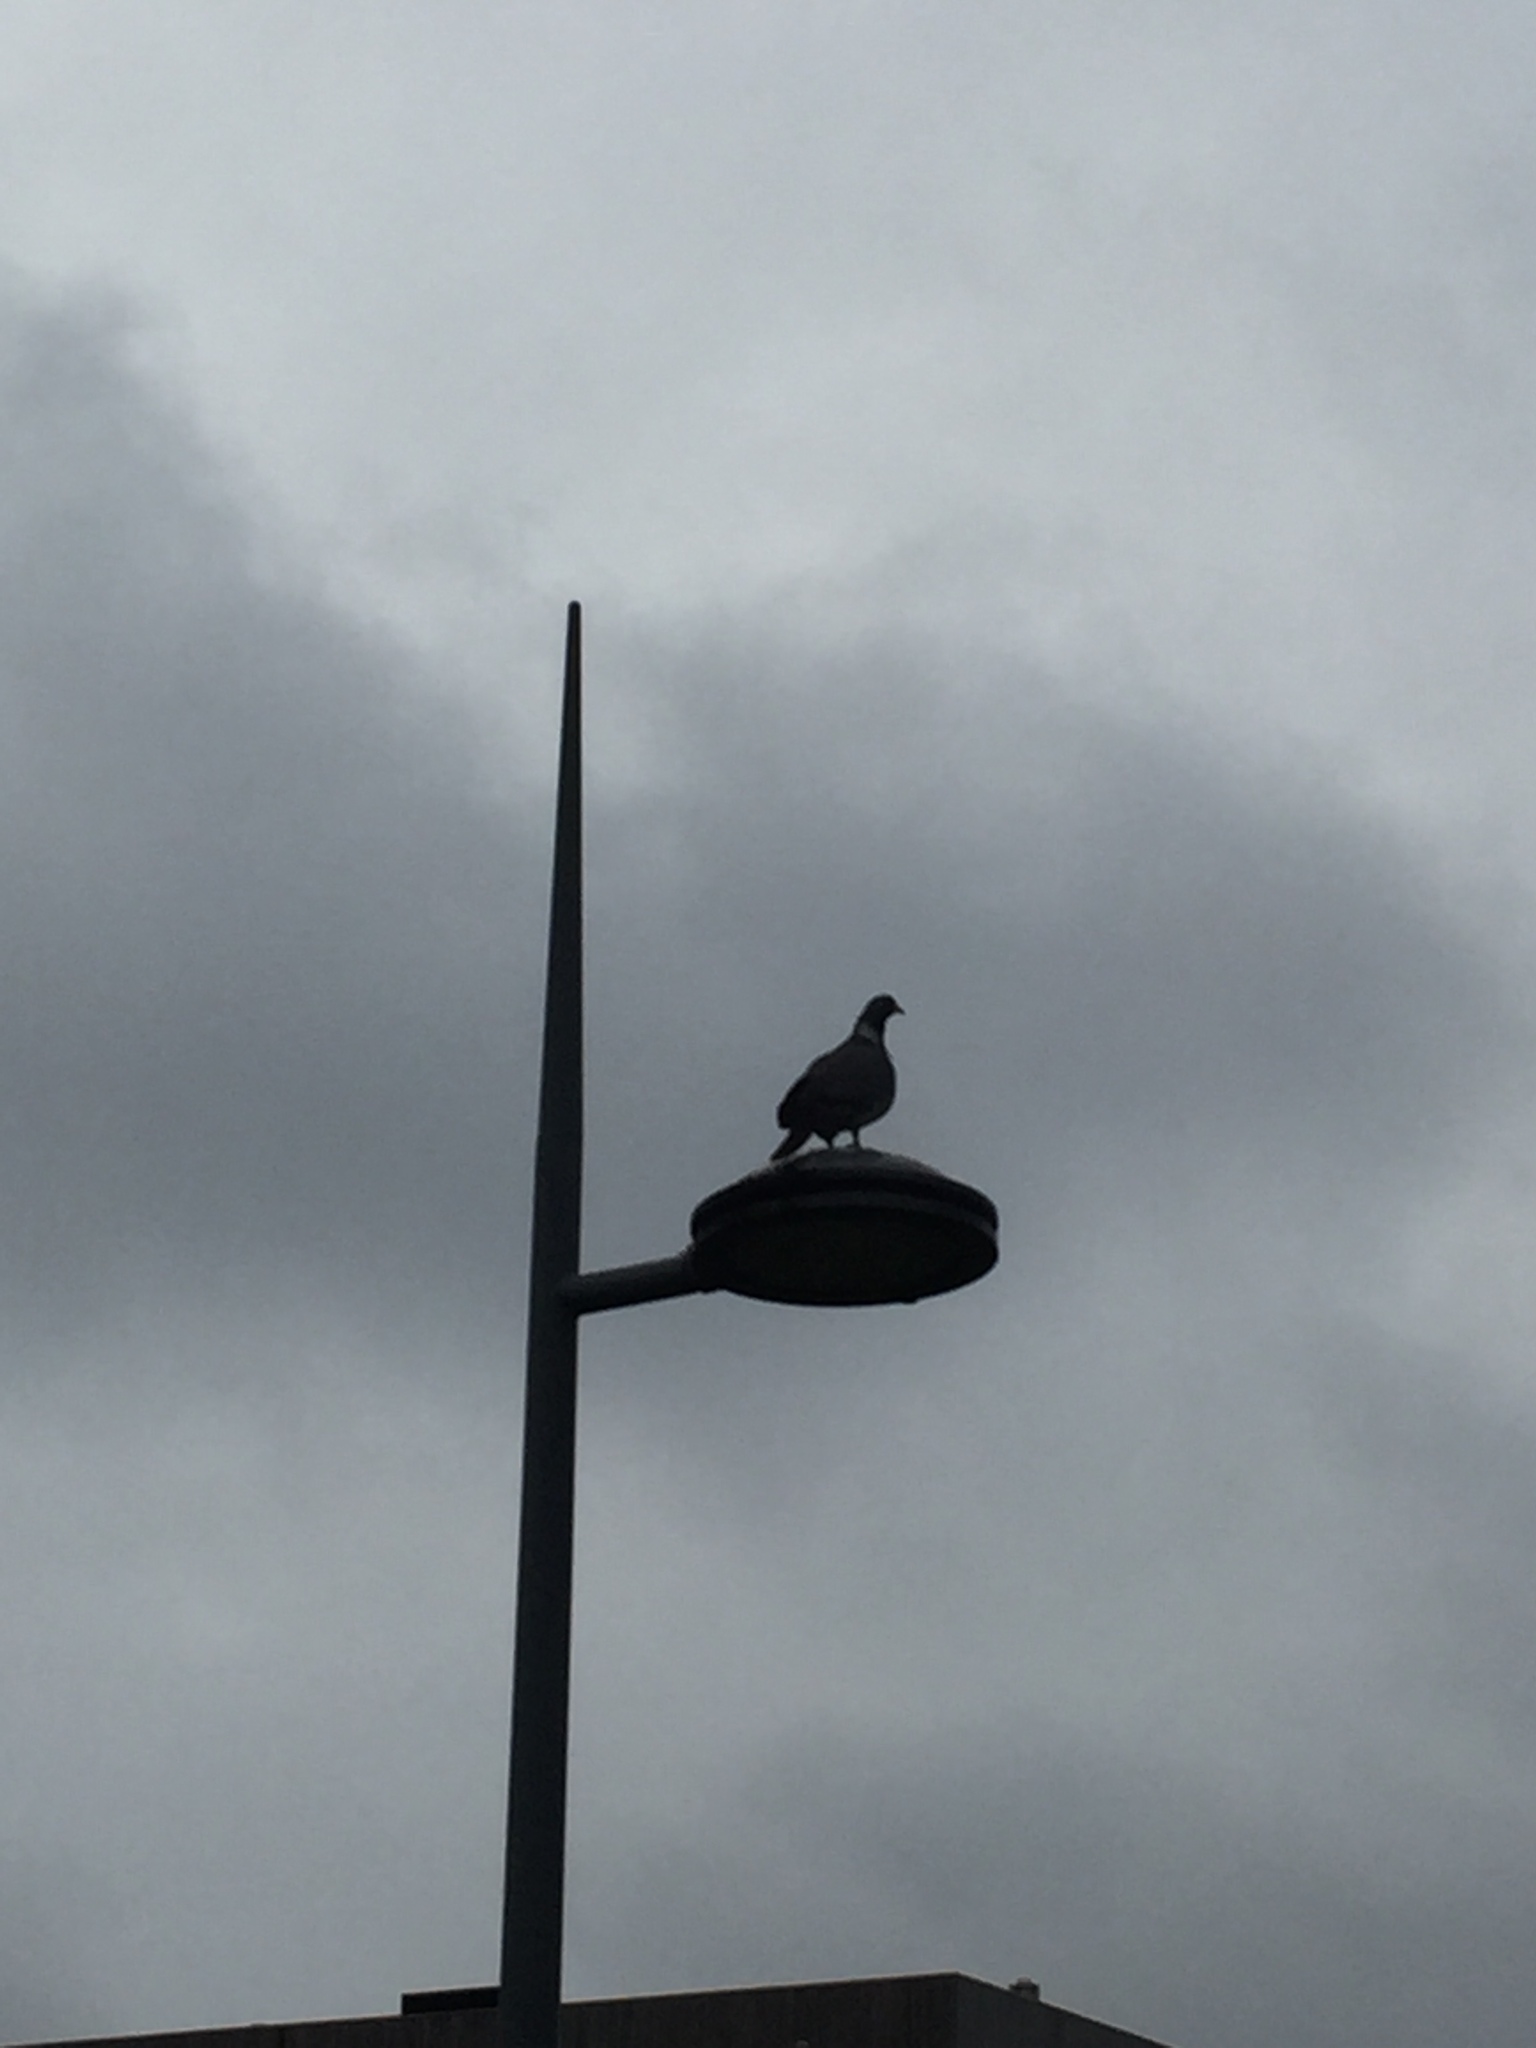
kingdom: Animalia
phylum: Chordata
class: Aves
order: Columbiformes
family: Columbidae
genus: Columba
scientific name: Columba palumbus
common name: Common wood pigeon
